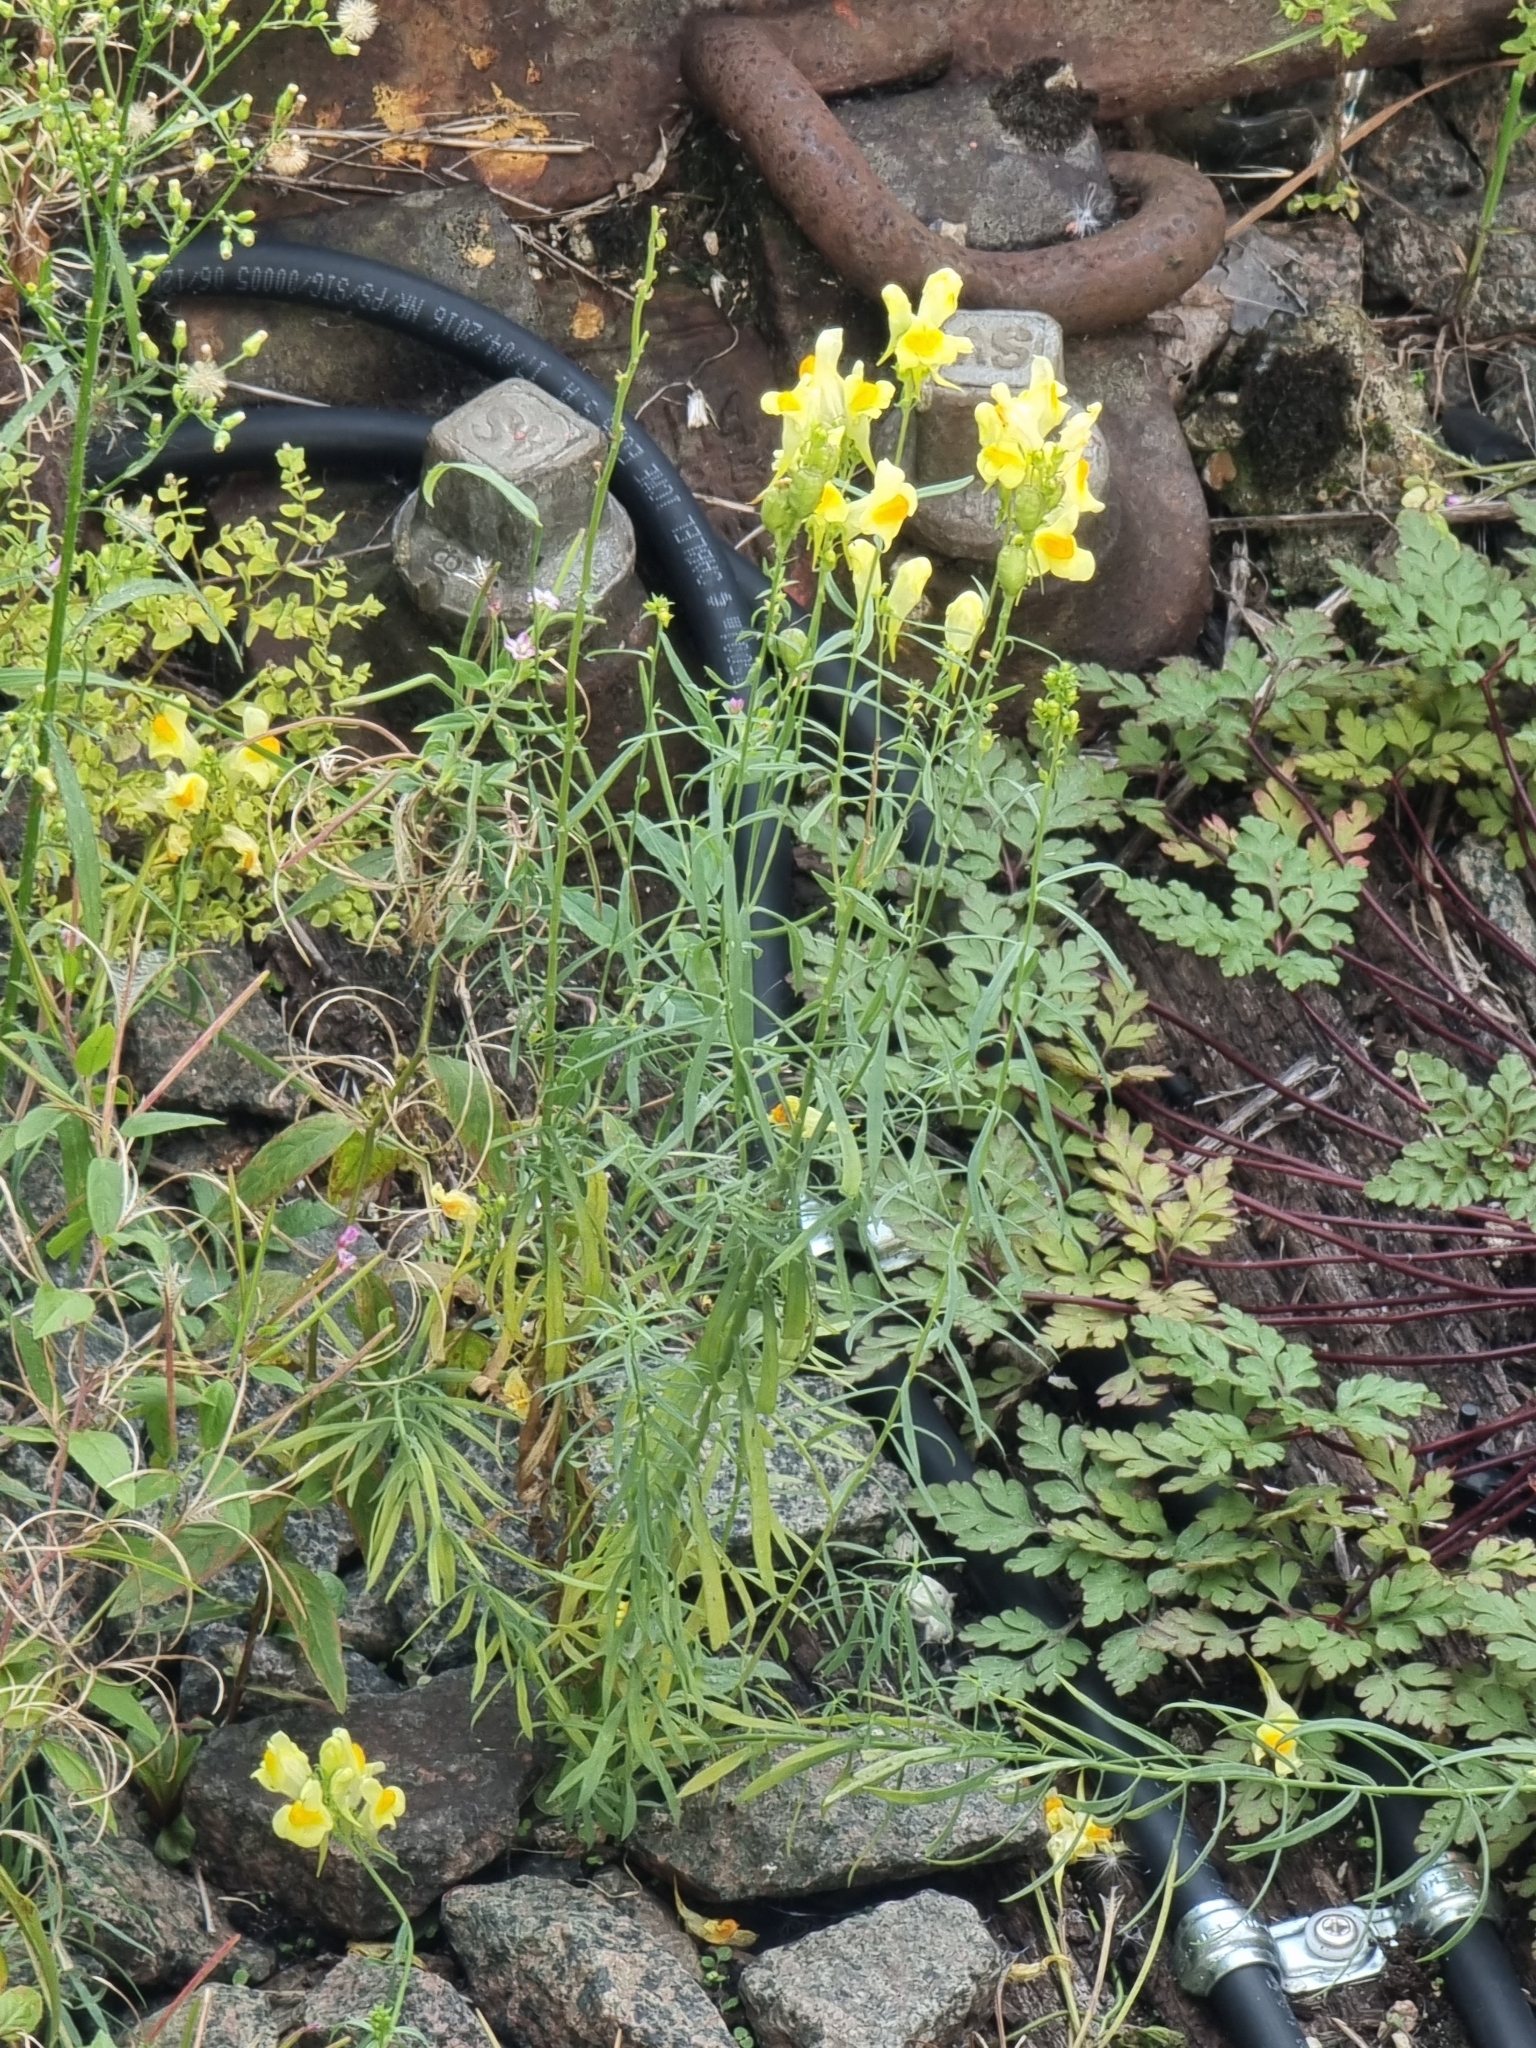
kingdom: Plantae
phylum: Tracheophyta
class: Magnoliopsida
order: Lamiales
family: Plantaginaceae
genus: Linaria
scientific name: Linaria vulgaris
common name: Butter and eggs
